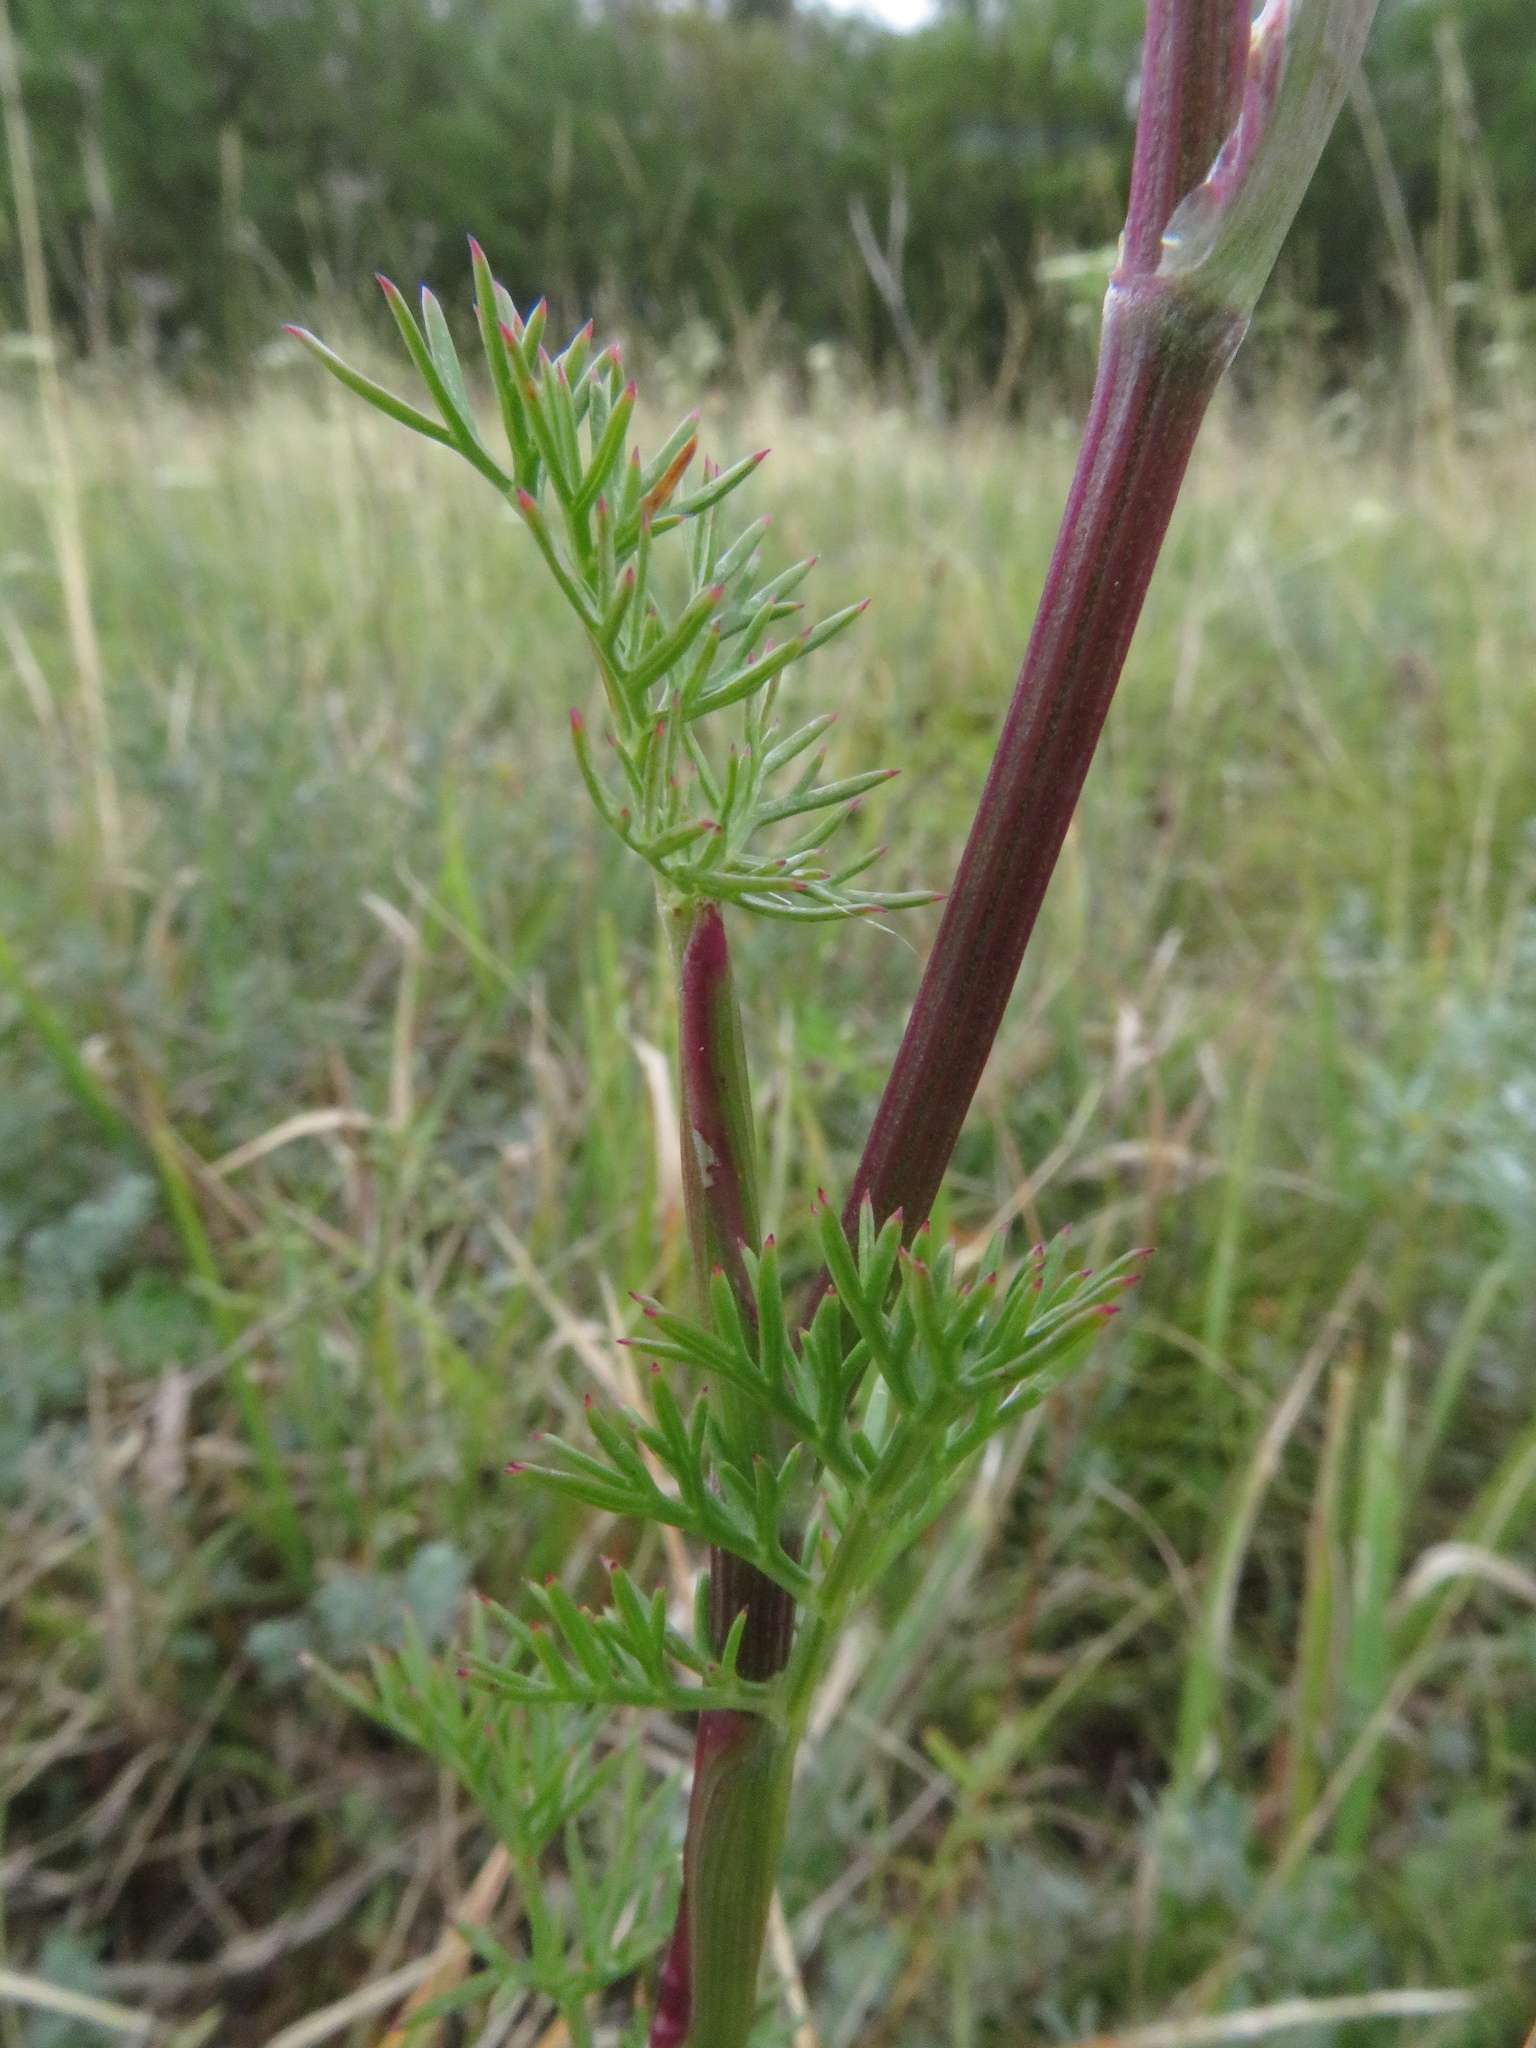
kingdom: Plantae
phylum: Tracheophyta
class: Magnoliopsida
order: Apiales
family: Apiaceae
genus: Seseli
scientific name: Seseli annuum
